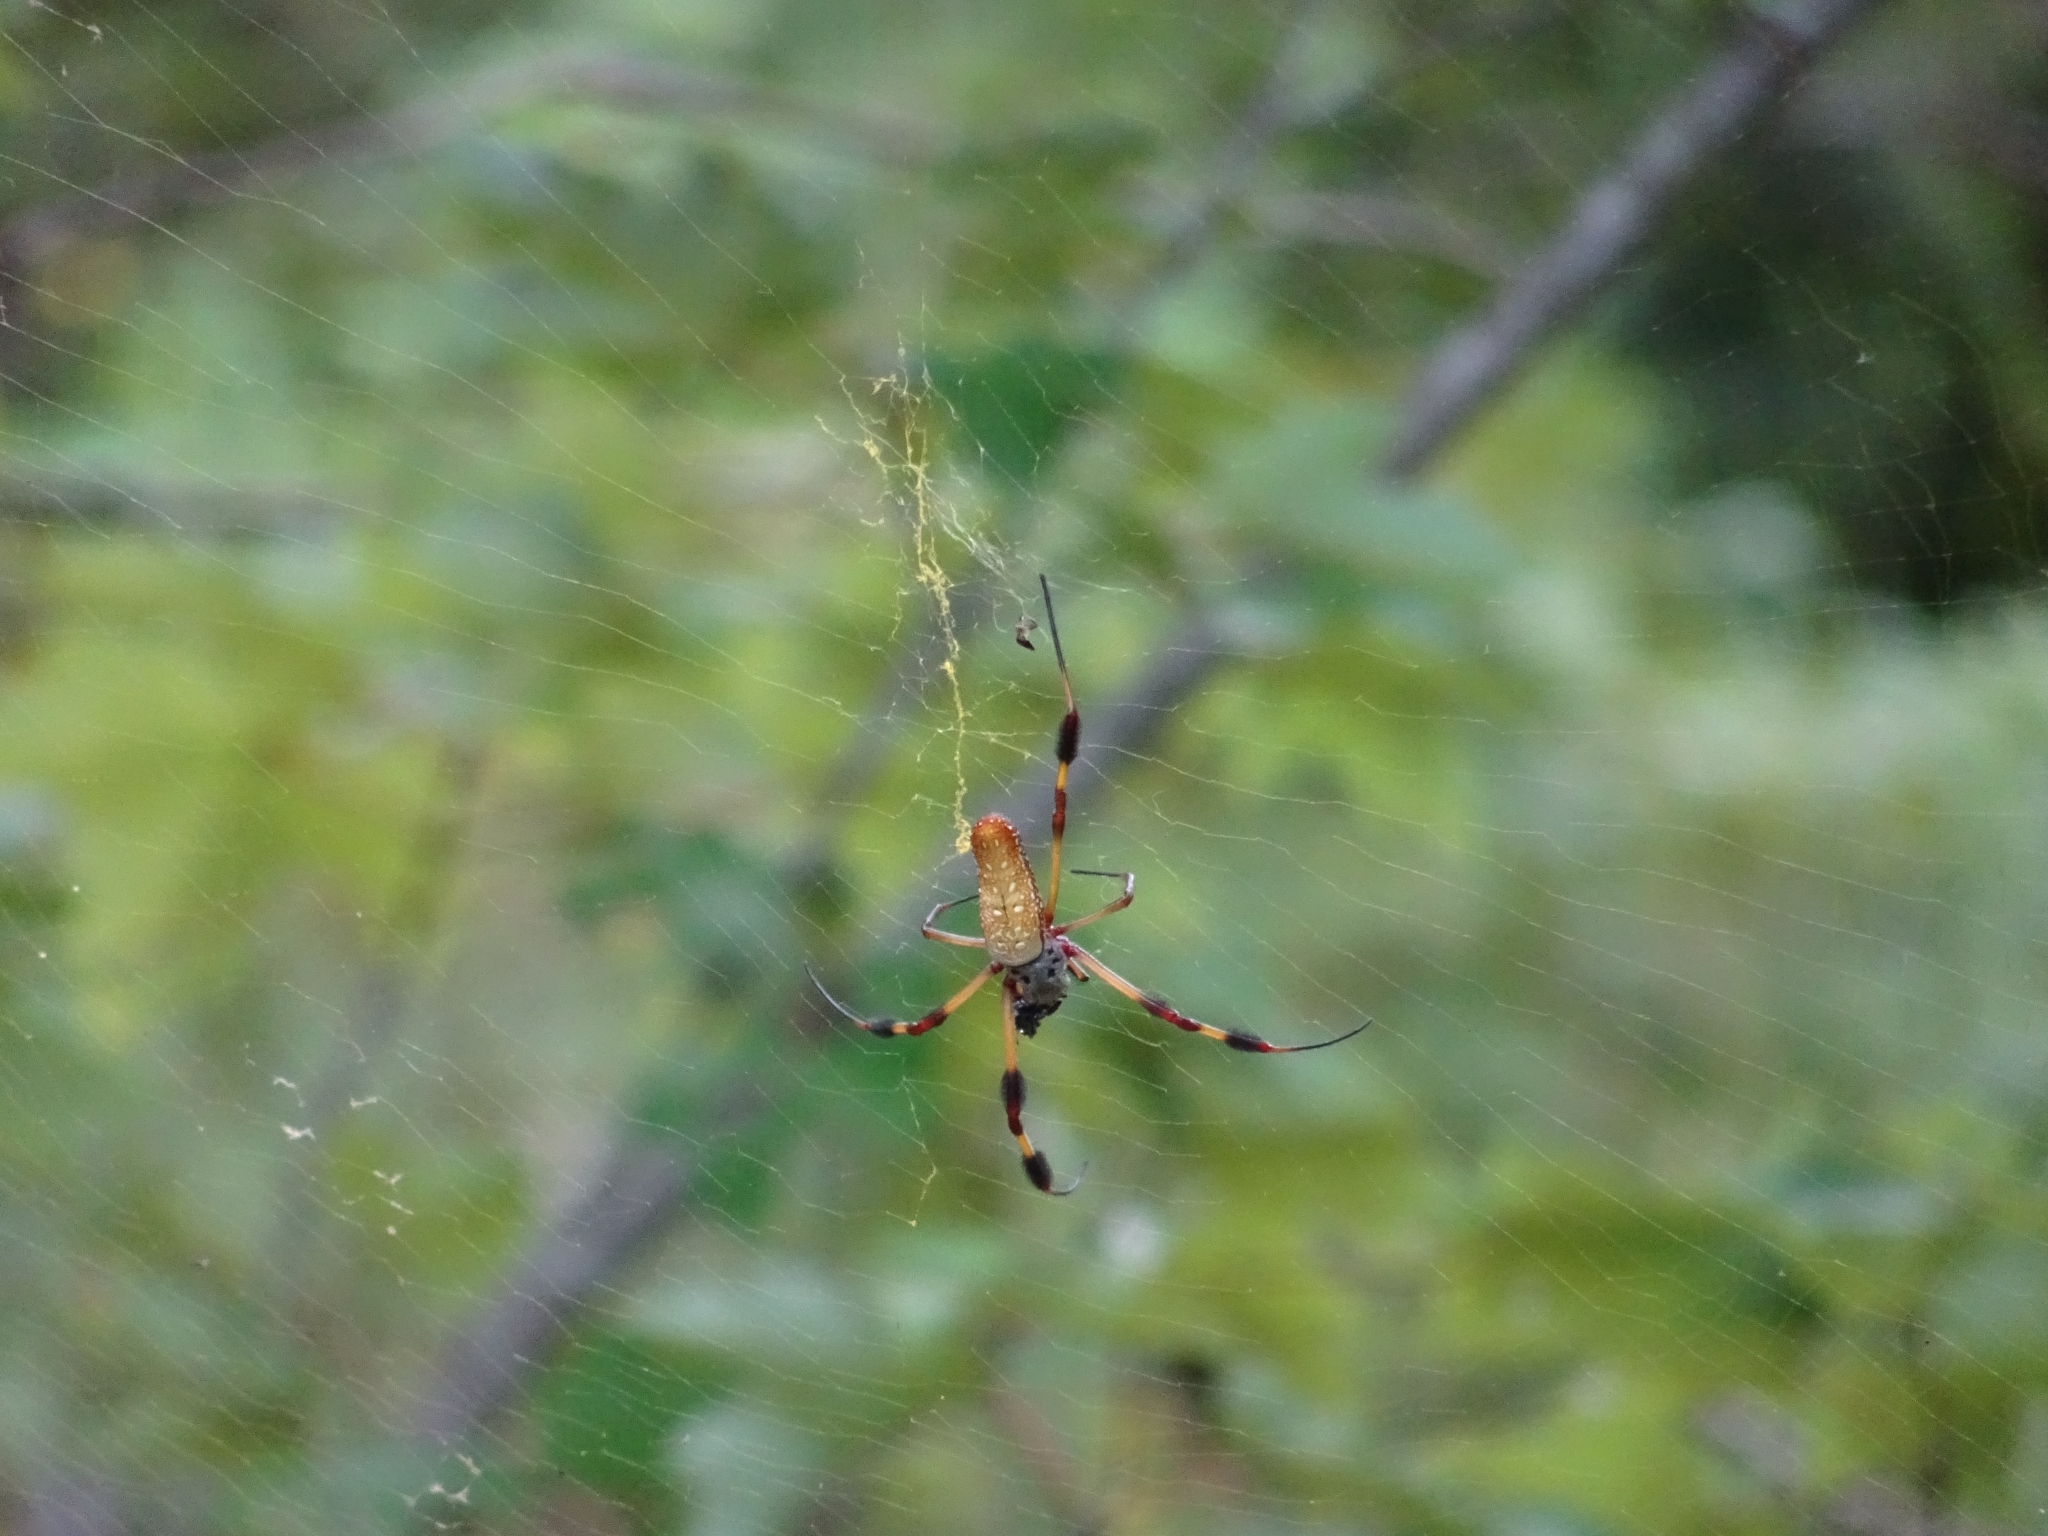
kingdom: Animalia
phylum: Arthropoda
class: Arachnida
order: Araneae
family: Araneidae
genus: Trichonephila
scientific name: Trichonephila clavipes
